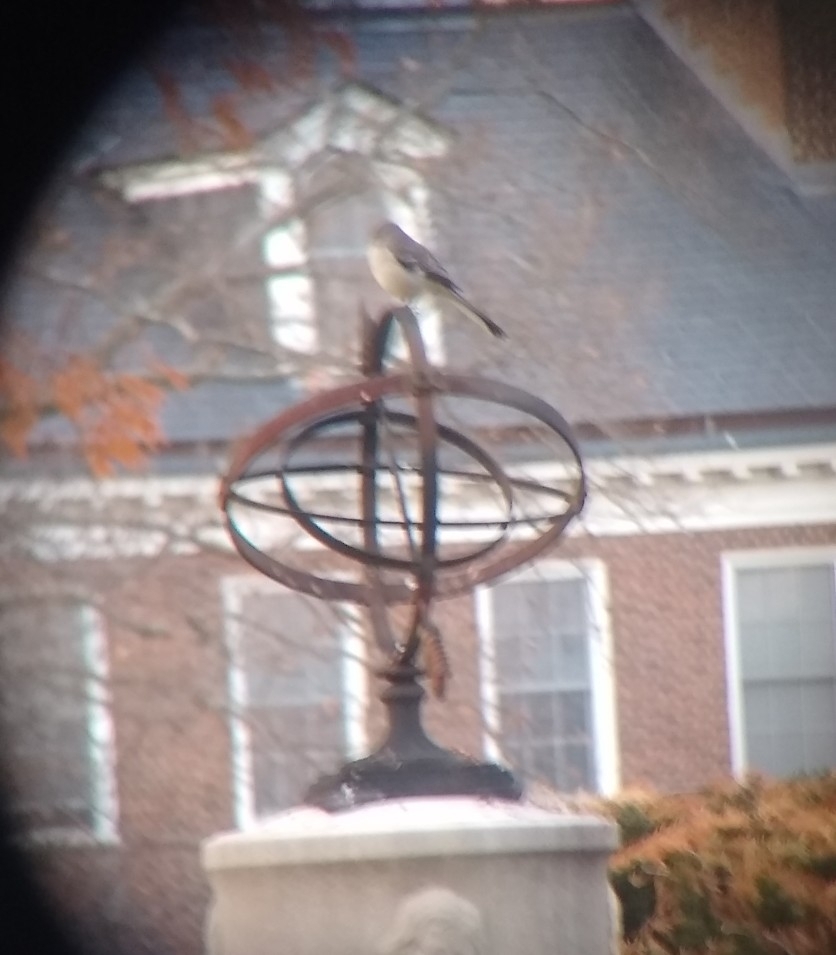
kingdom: Animalia
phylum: Chordata
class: Aves
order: Passeriformes
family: Mimidae
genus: Mimus
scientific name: Mimus polyglottos
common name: Northern mockingbird
